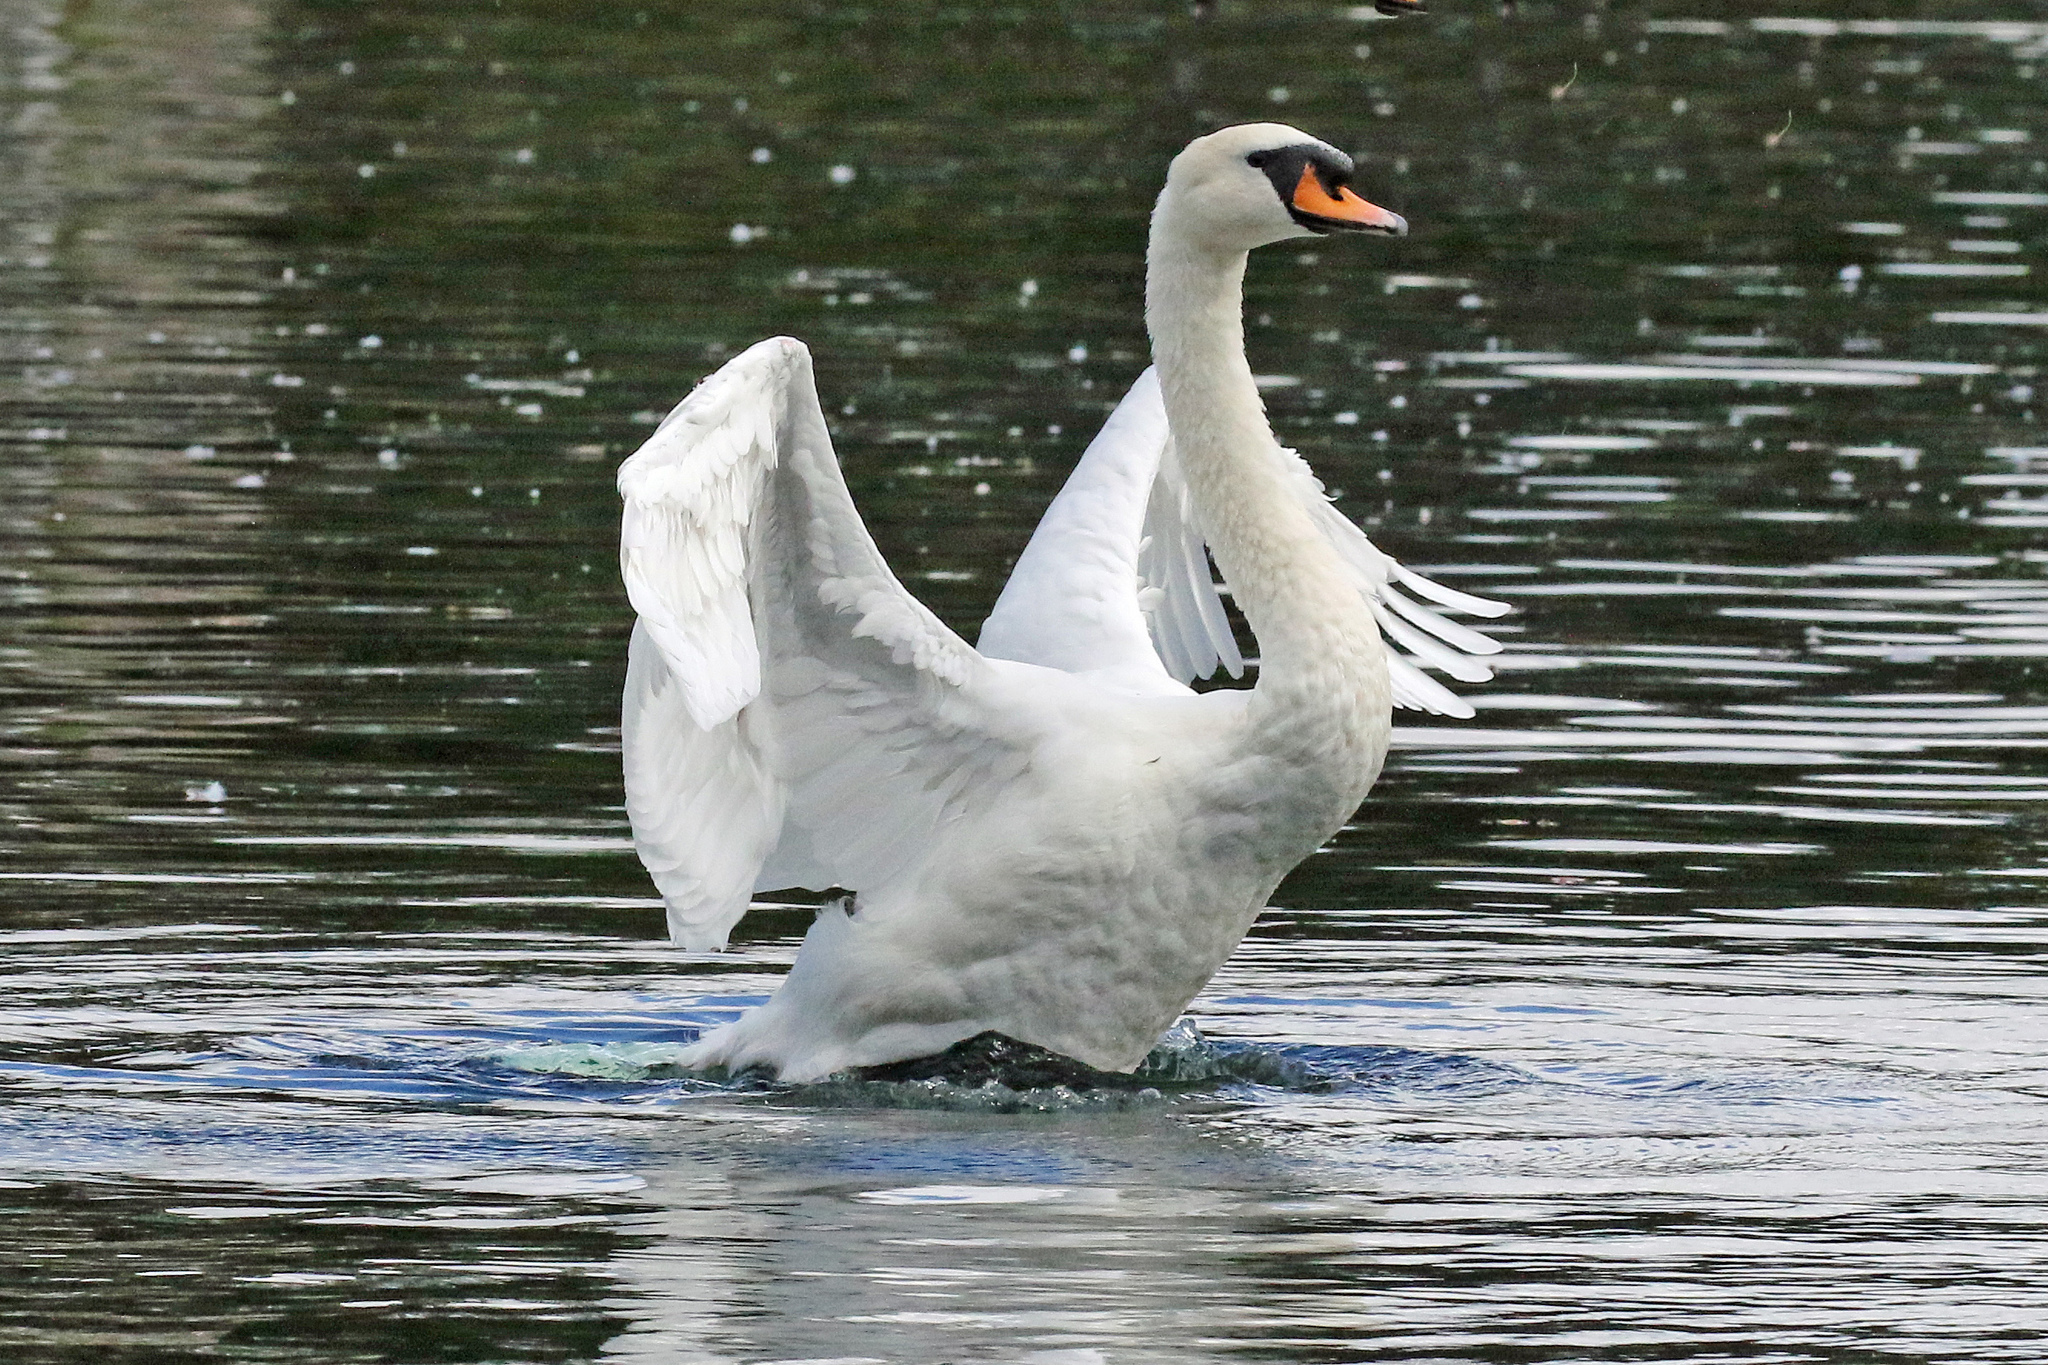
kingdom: Animalia
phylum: Chordata
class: Aves
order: Anseriformes
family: Anatidae
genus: Cygnus
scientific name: Cygnus olor
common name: Mute swan
